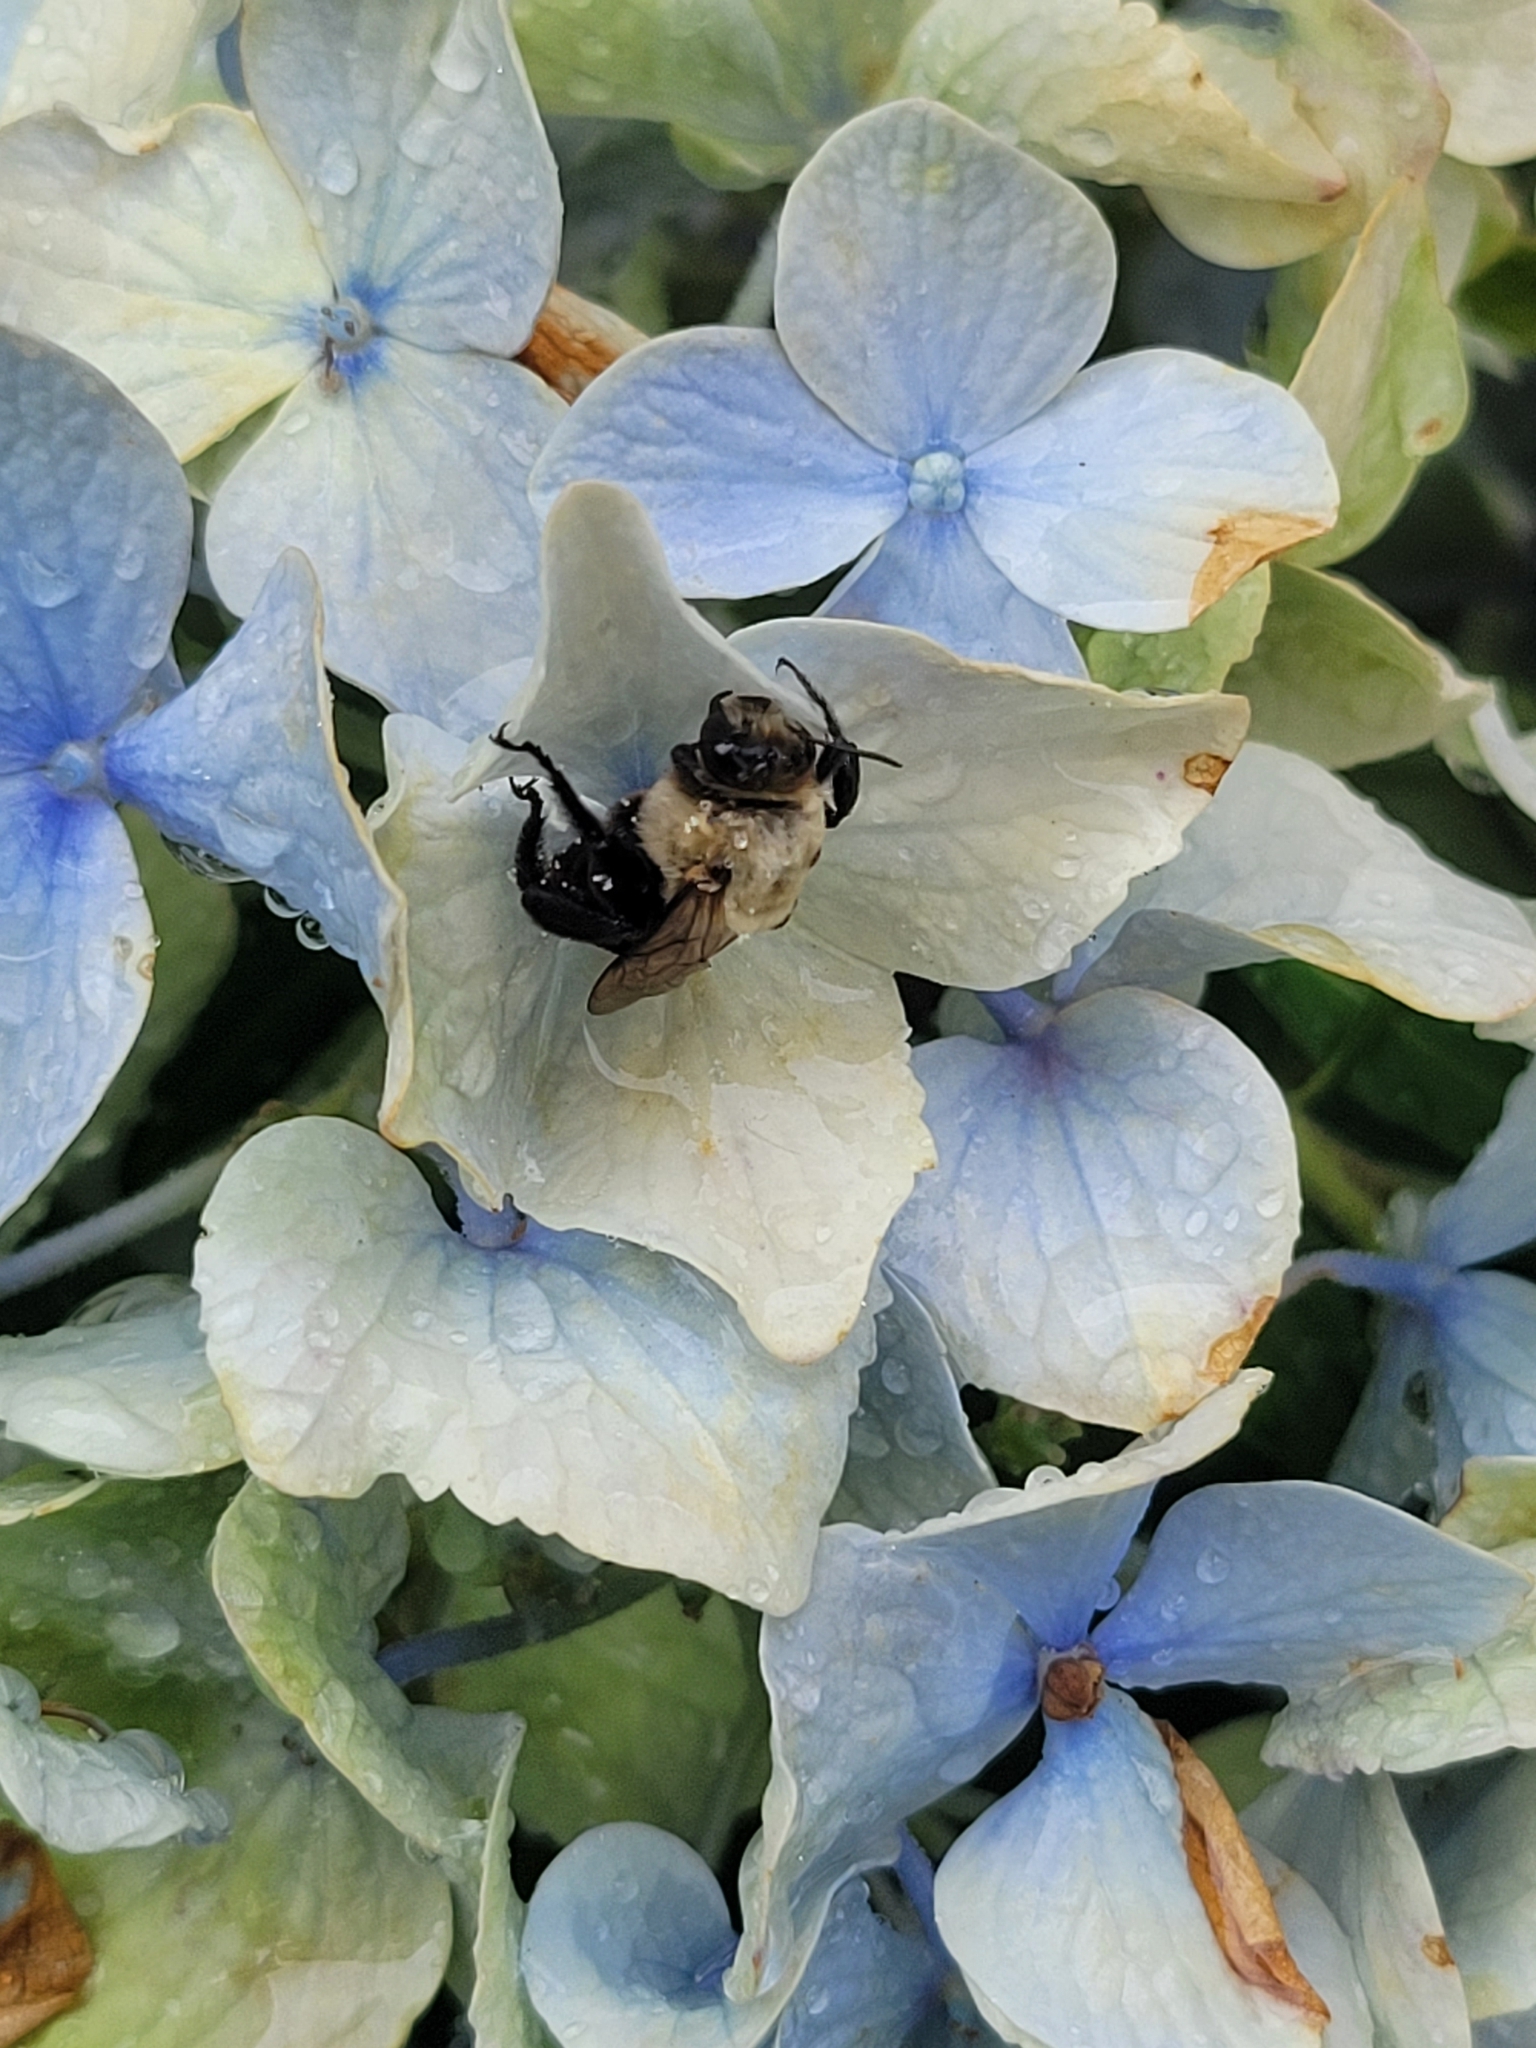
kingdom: Animalia
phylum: Arthropoda
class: Insecta
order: Hymenoptera
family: Apidae
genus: Ptilothrix
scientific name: Ptilothrix bombiformis
